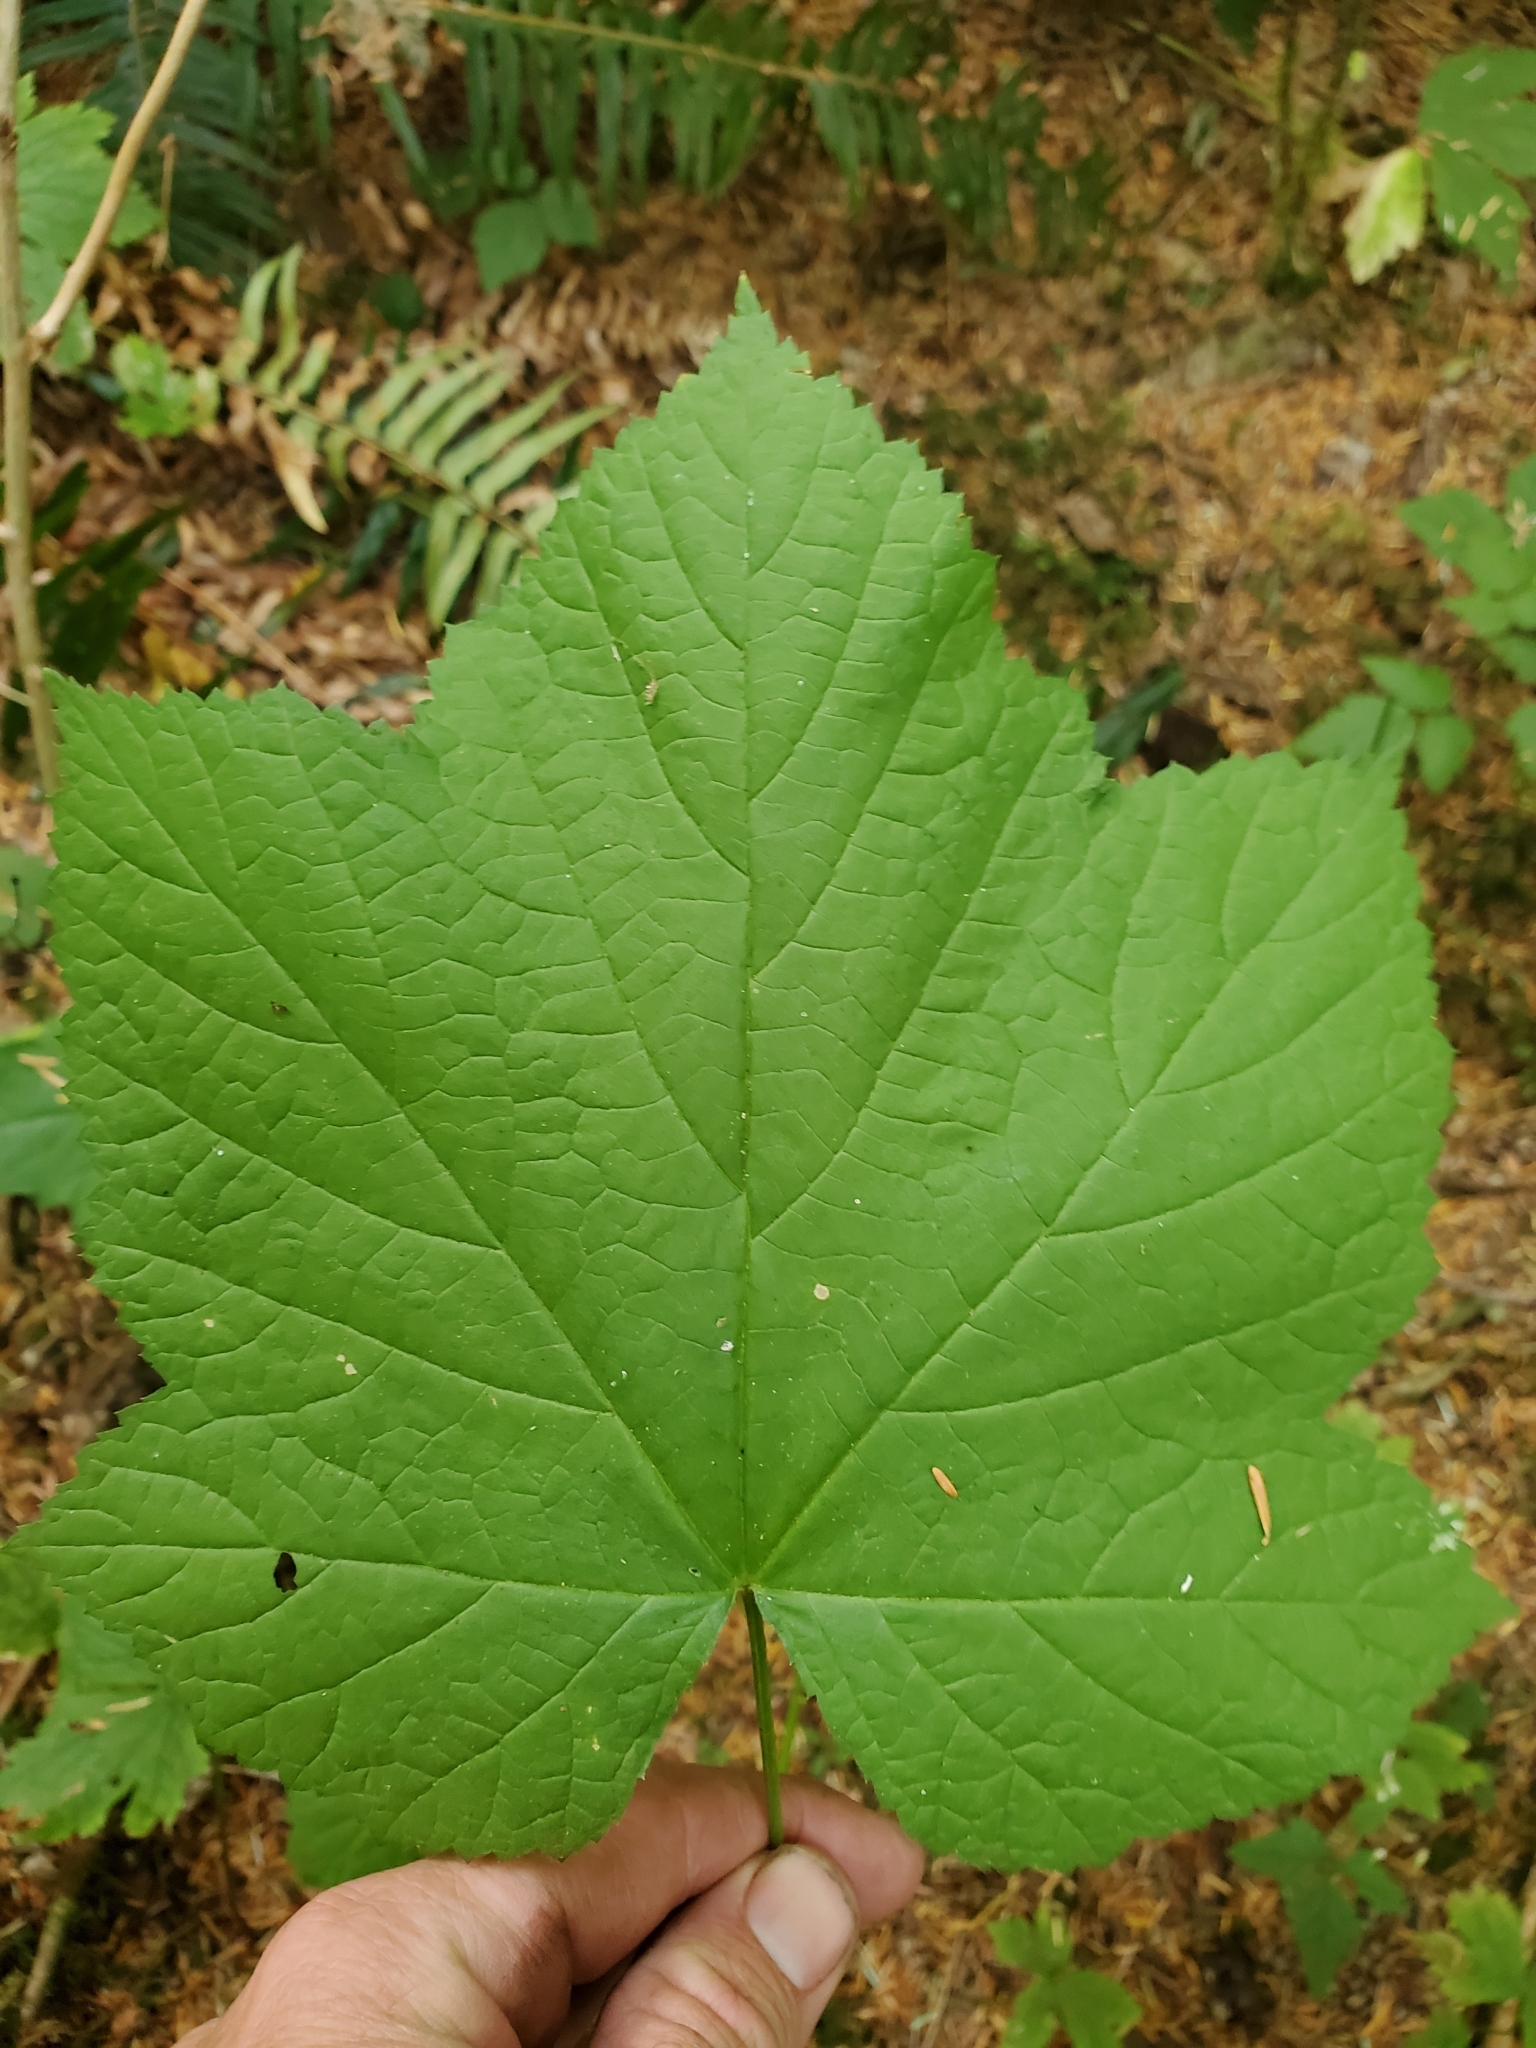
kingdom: Plantae
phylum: Tracheophyta
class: Magnoliopsida
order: Rosales
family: Rosaceae
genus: Rubus
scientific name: Rubus parviflorus
